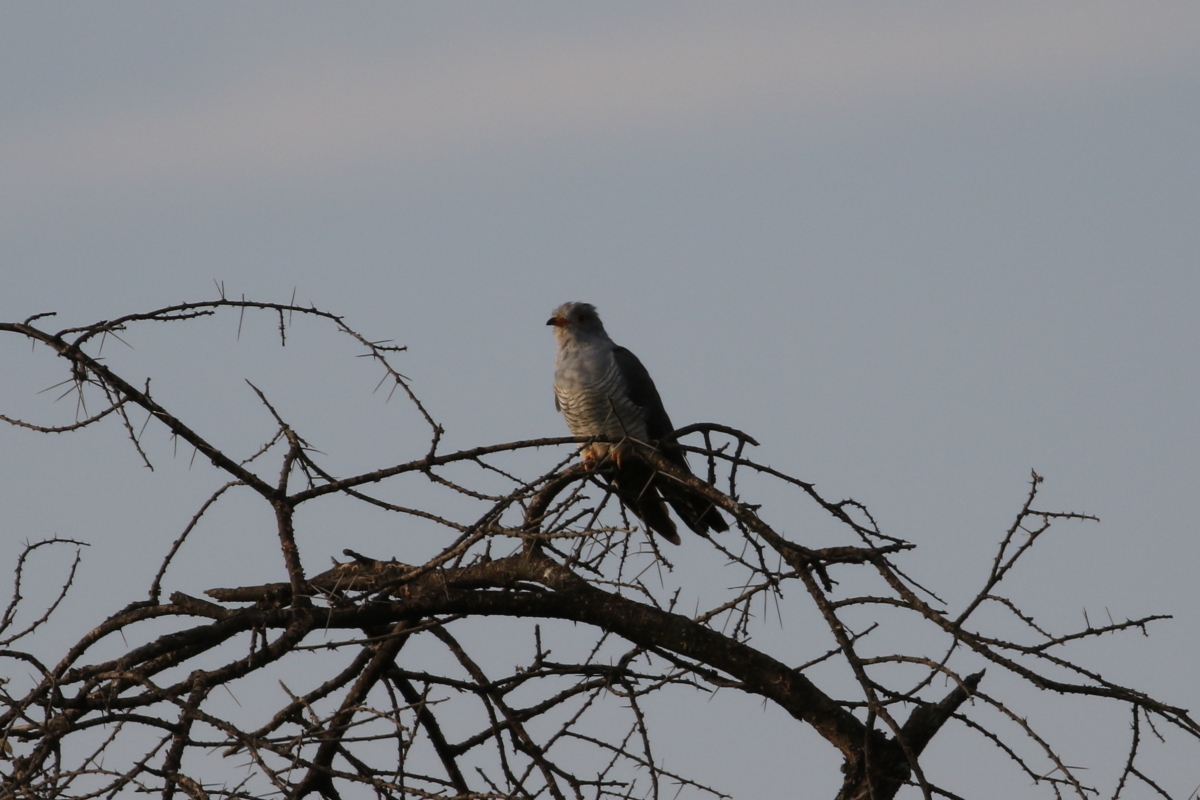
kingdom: Animalia
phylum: Chordata
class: Aves
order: Cuculiformes
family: Cuculidae
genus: Cuculus
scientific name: Cuculus gularis
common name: African cuckoo
